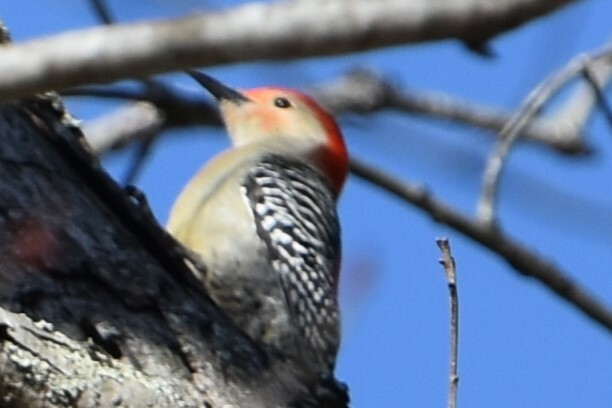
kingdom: Animalia
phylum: Chordata
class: Aves
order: Piciformes
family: Picidae
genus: Melanerpes
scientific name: Melanerpes carolinus
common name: Red-bellied woodpecker
